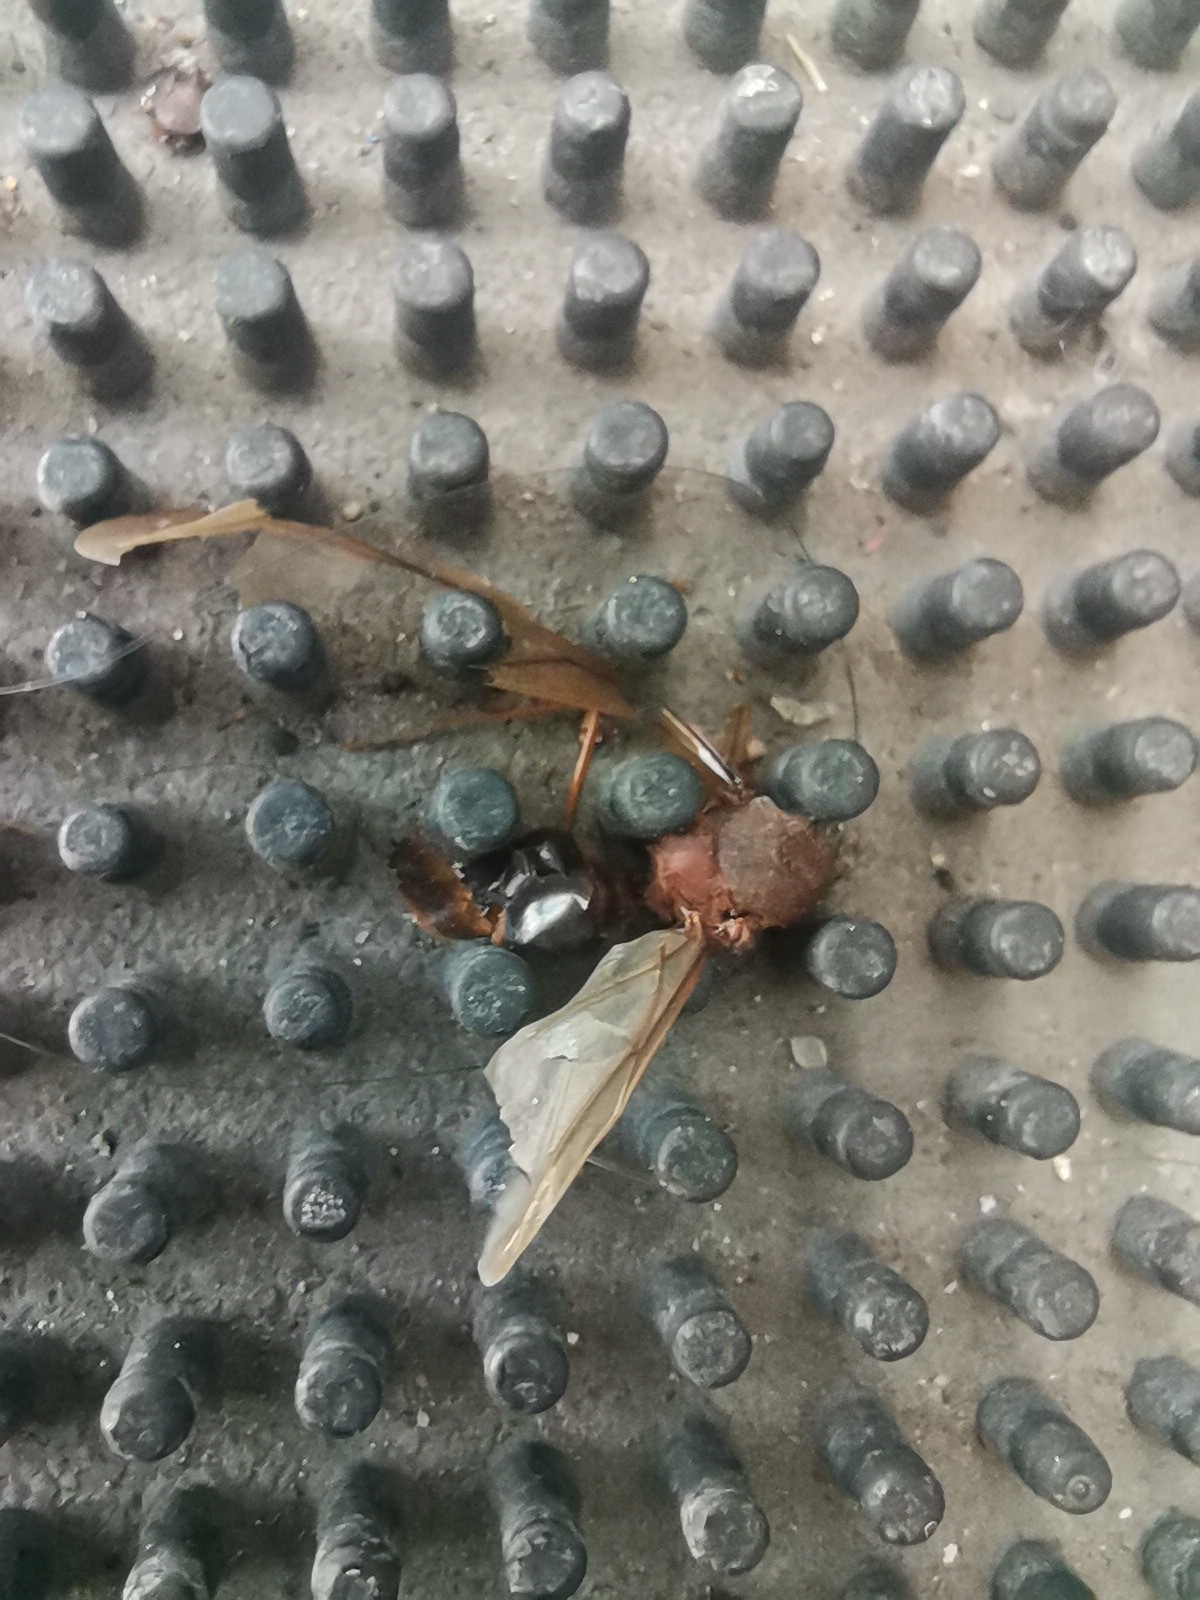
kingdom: Animalia
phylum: Arthropoda
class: Insecta
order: Hymenoptera
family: Formicidae
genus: Atta
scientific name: Atta mexicana
